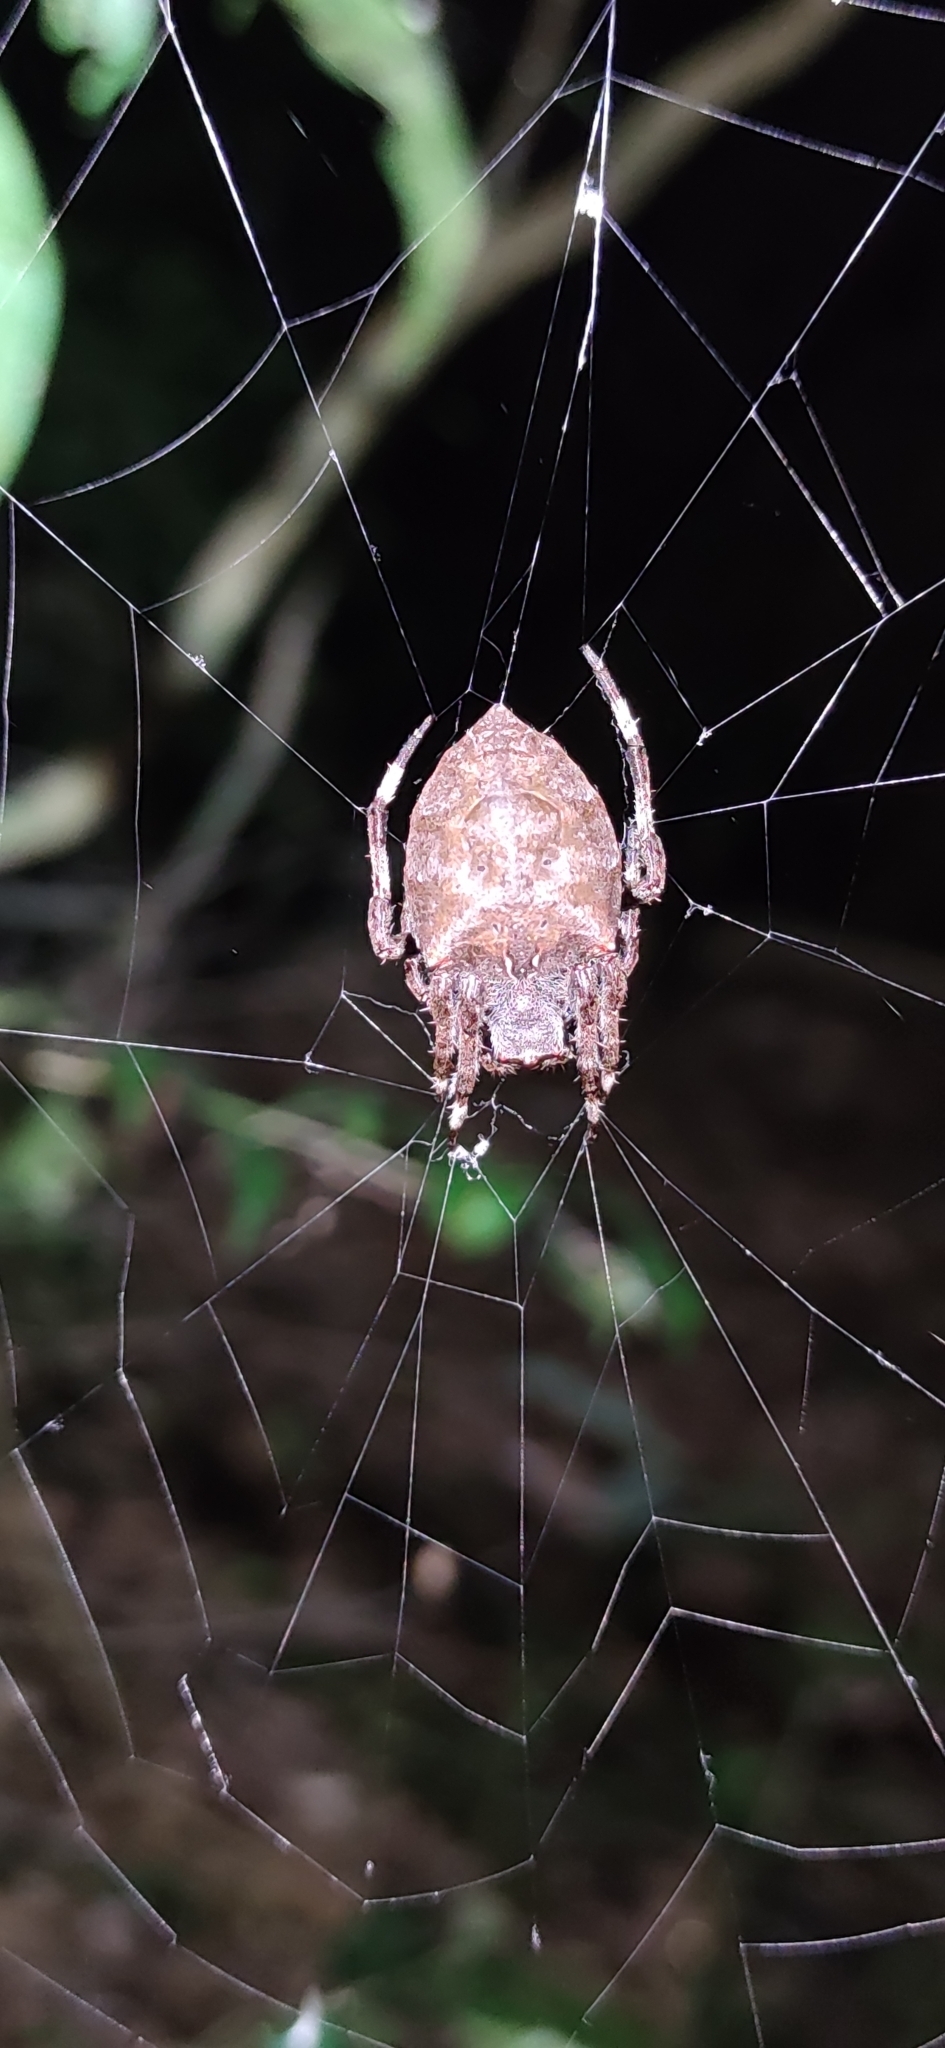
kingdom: Animalia
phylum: Arthropoda
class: Arachnida
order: Araneae
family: Araneidae
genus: Parawixia
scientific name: Parawixia dehaani
